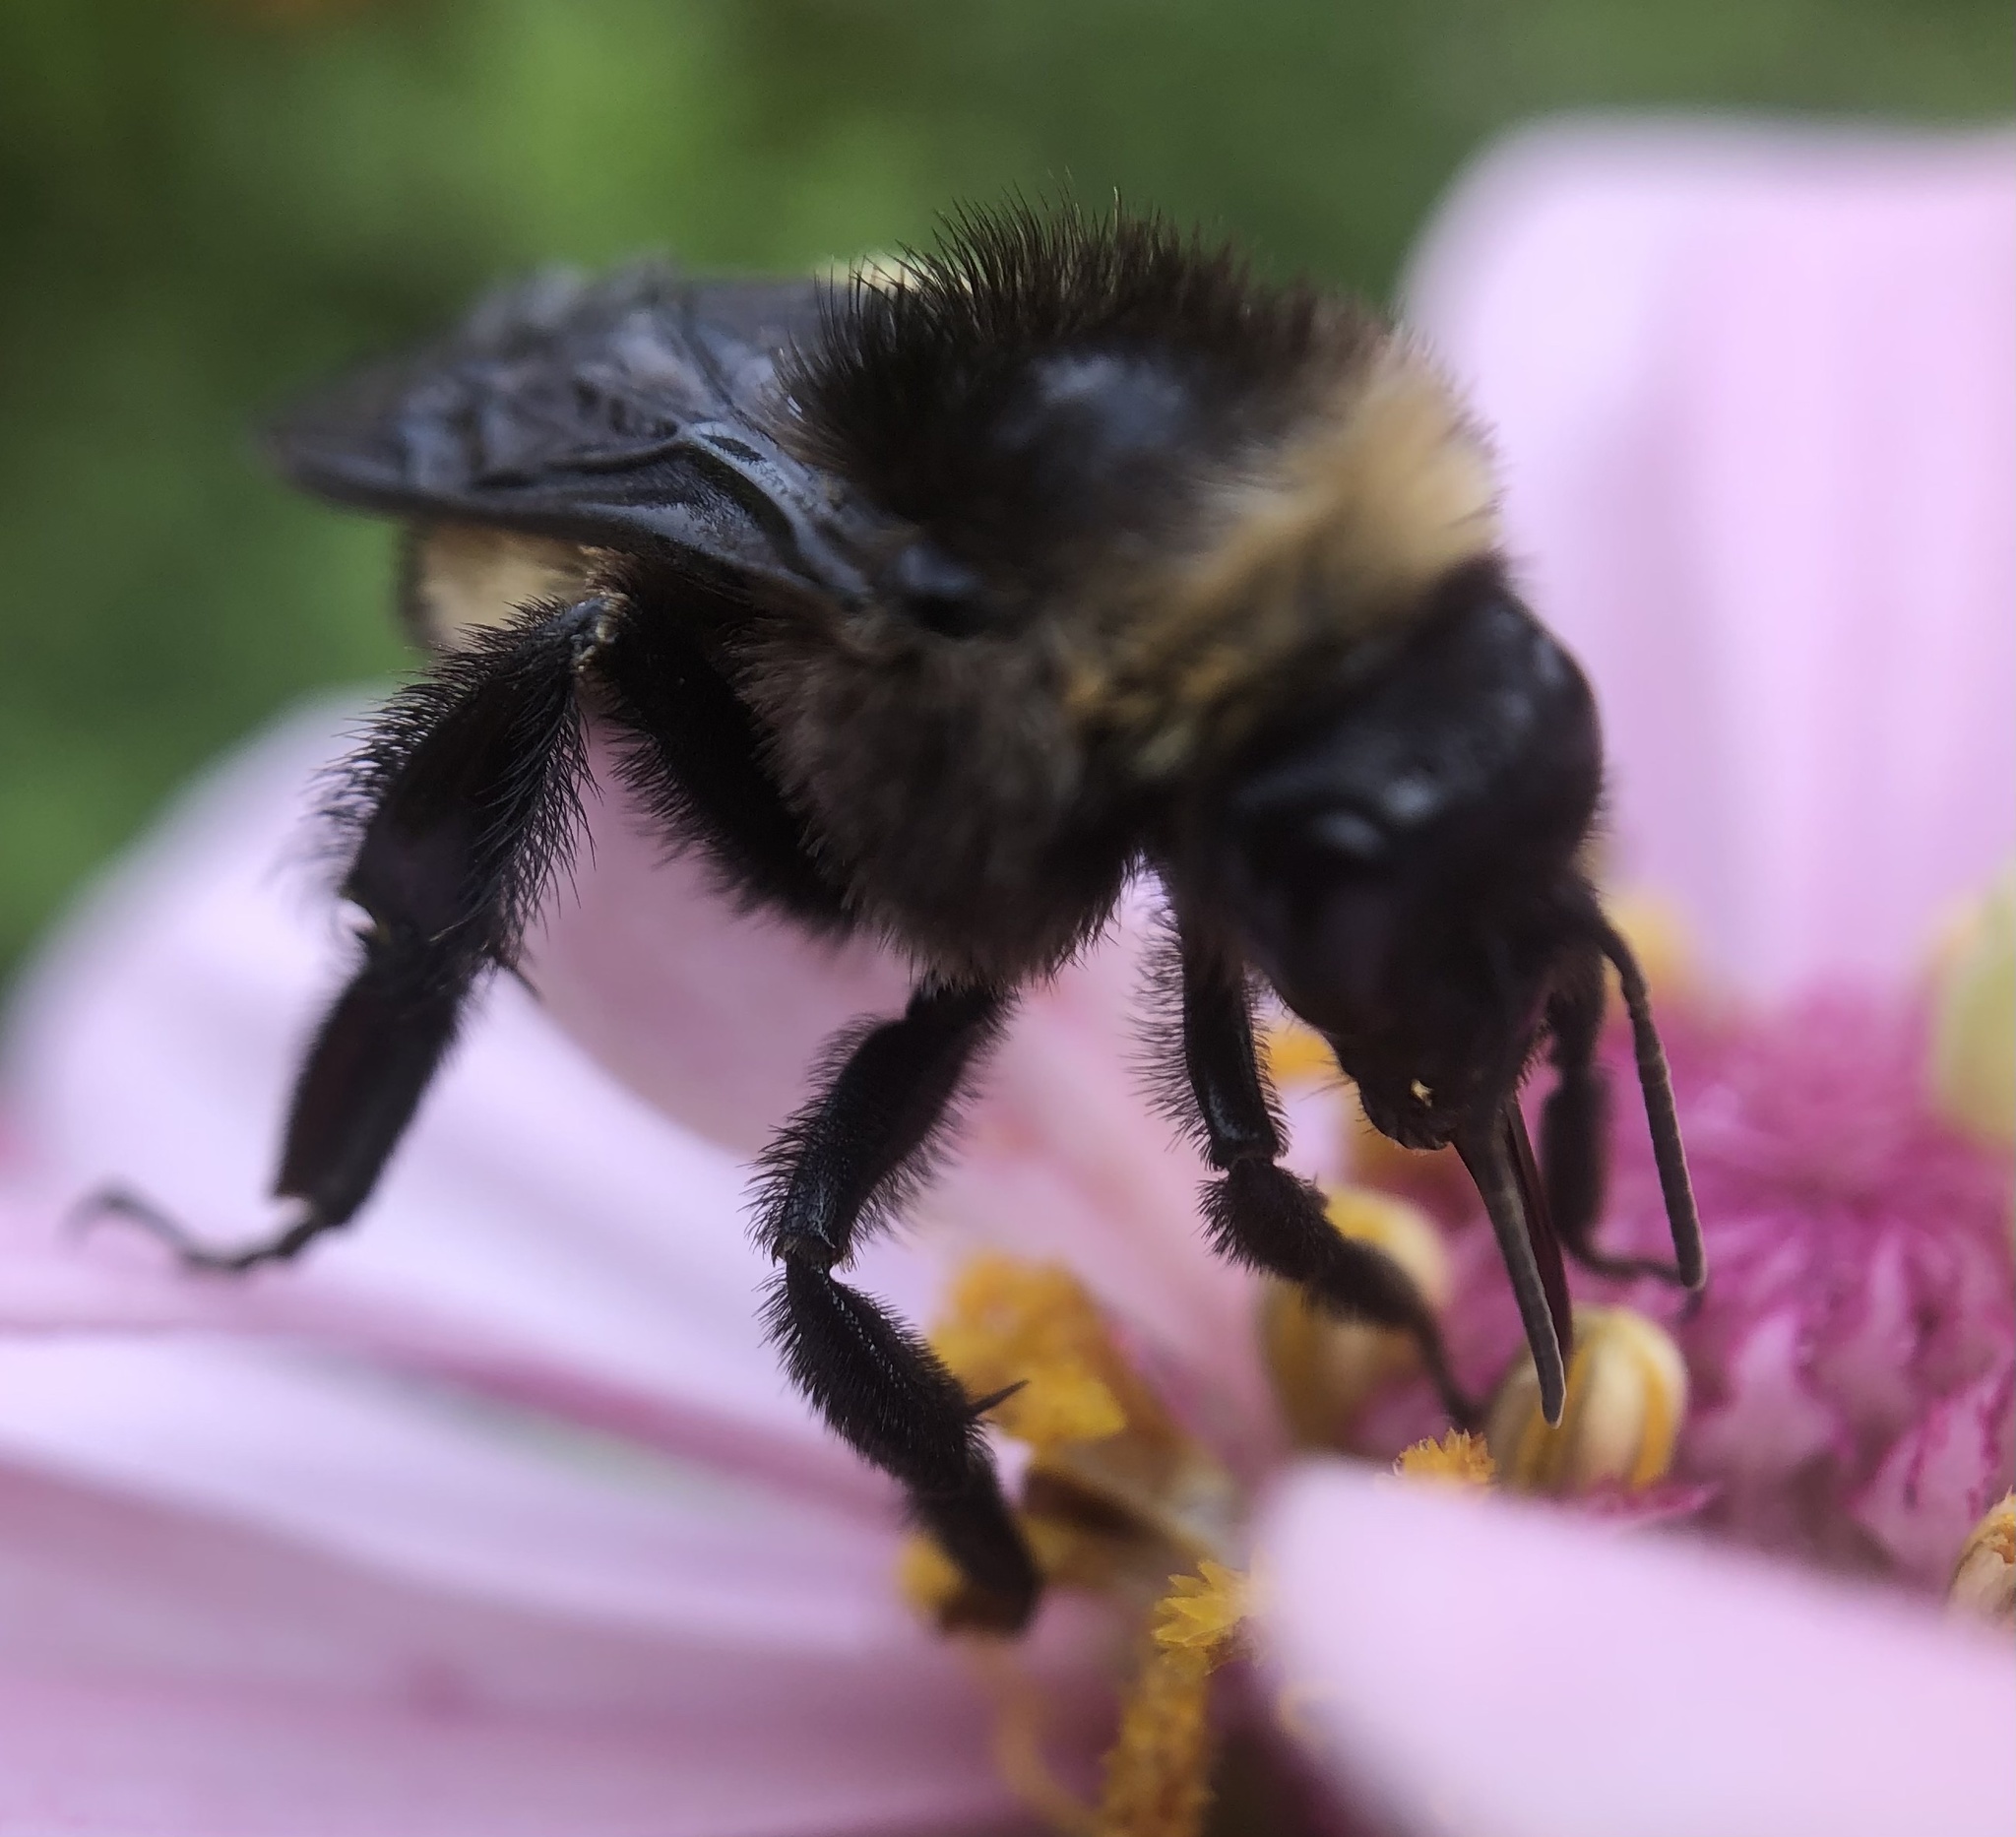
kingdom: Animalia
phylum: Arthropoda
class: Insecta
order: Hymenoptera
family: Apidae
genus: Bombus
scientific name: Bombus pensylvanicus
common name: Bumble bee
